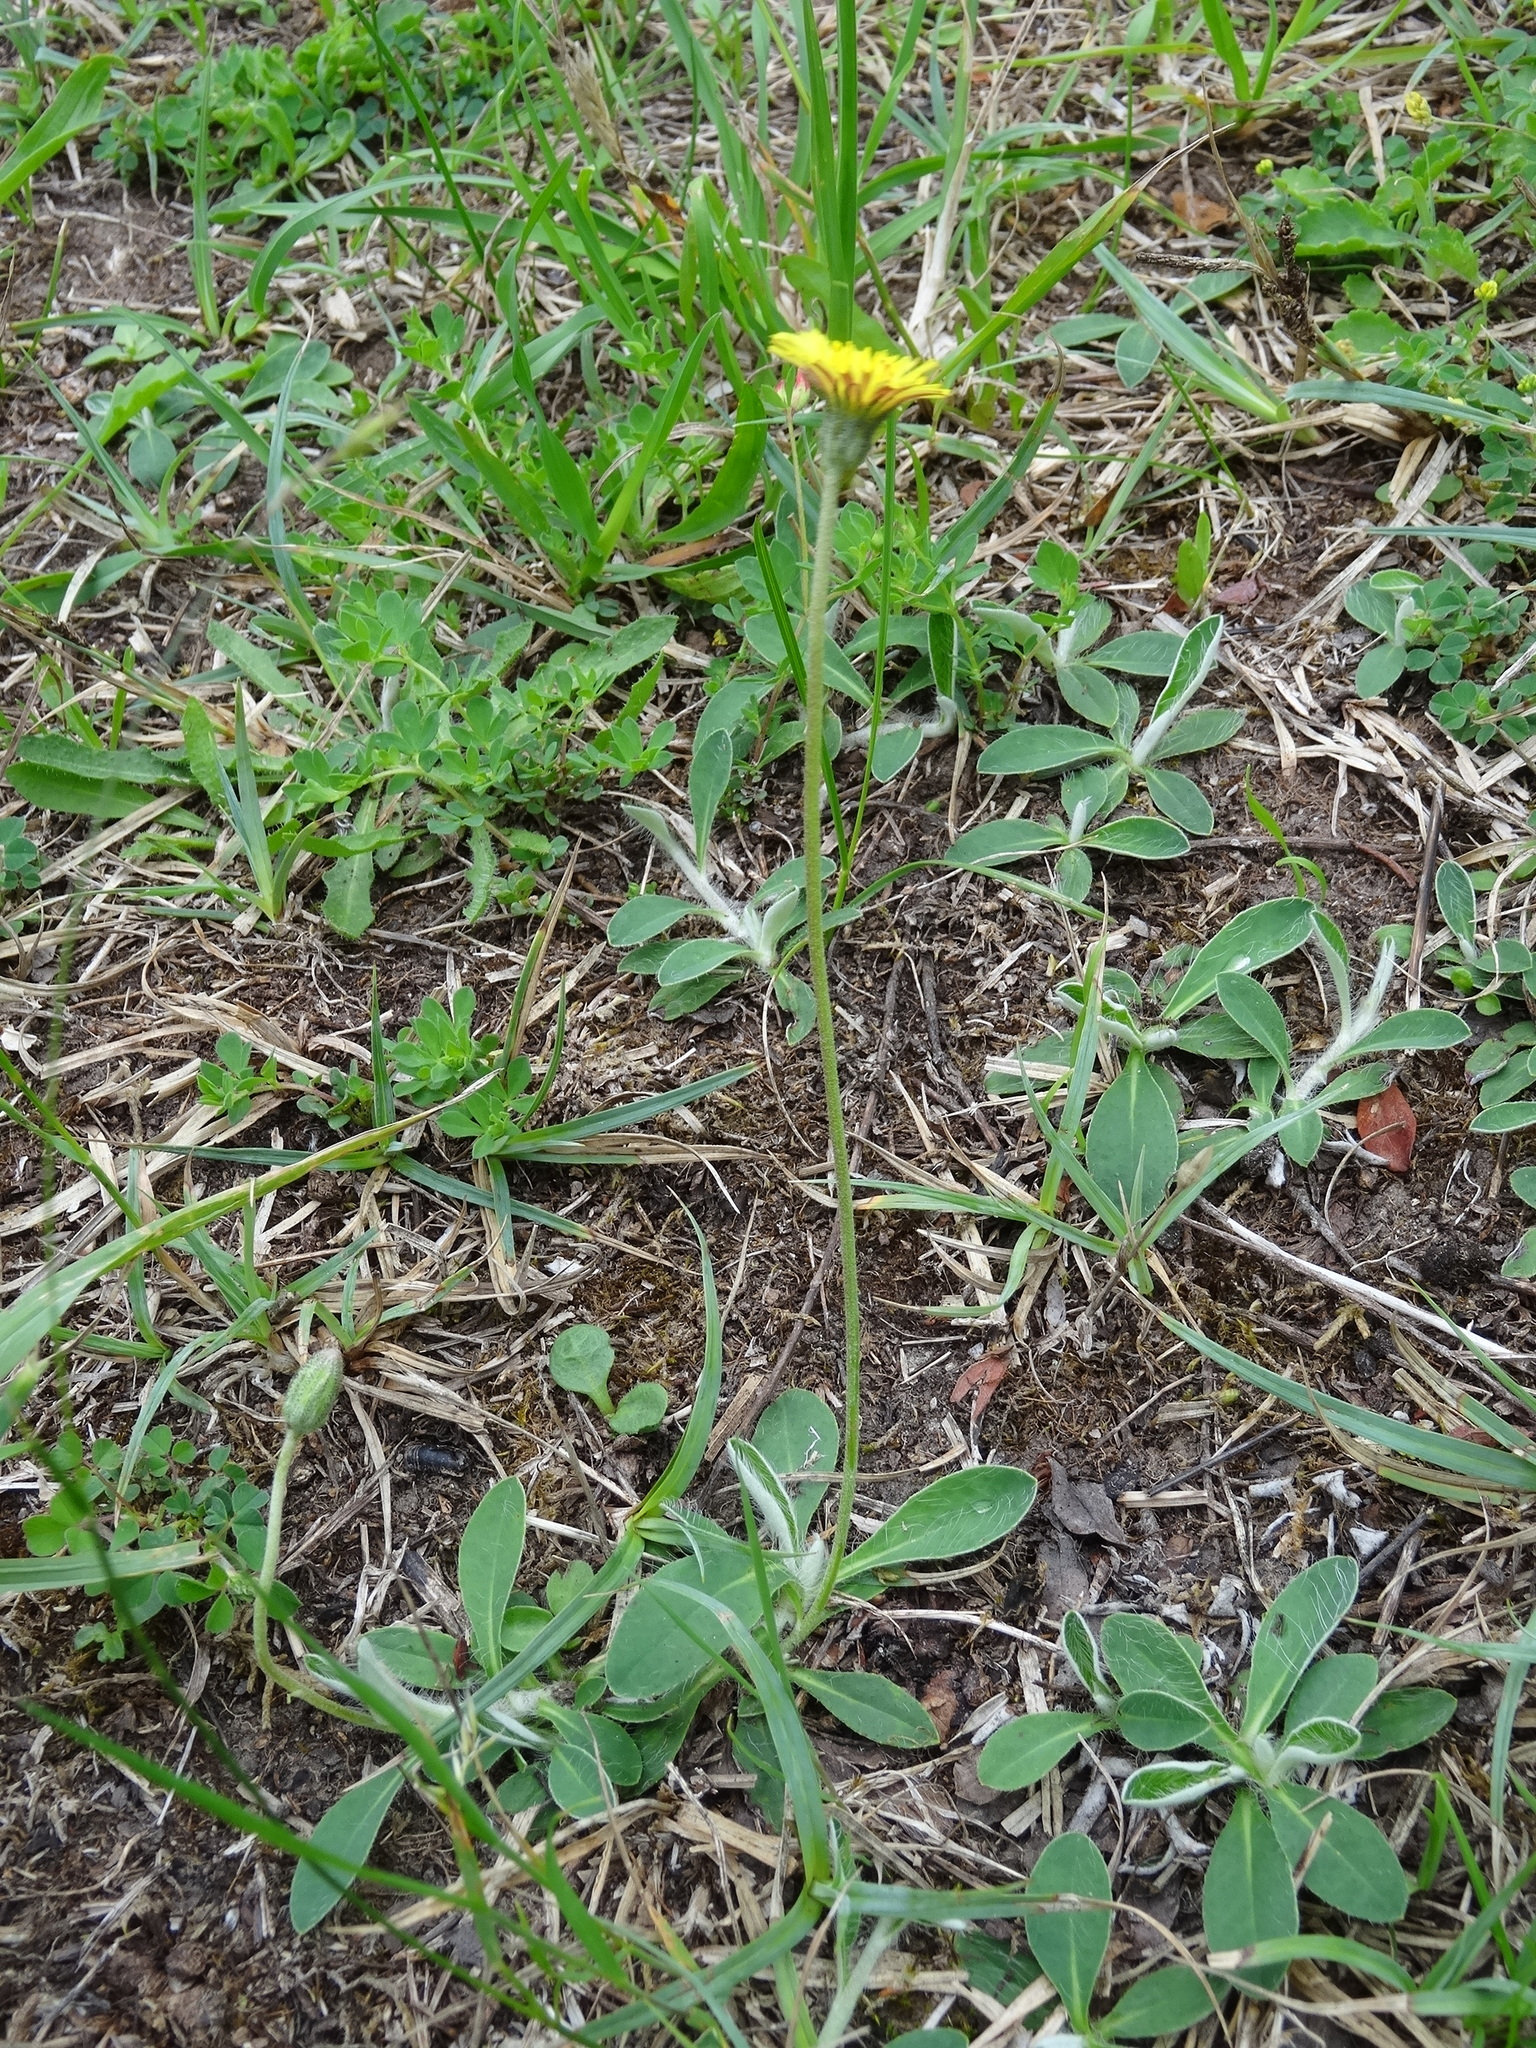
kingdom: Plantae
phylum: Tracheophyta
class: Magnoliopsida
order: Asterales
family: Asteraceae
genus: Pilosella
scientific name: Pilosella officinarum
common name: Mouse-ear hawkweed
